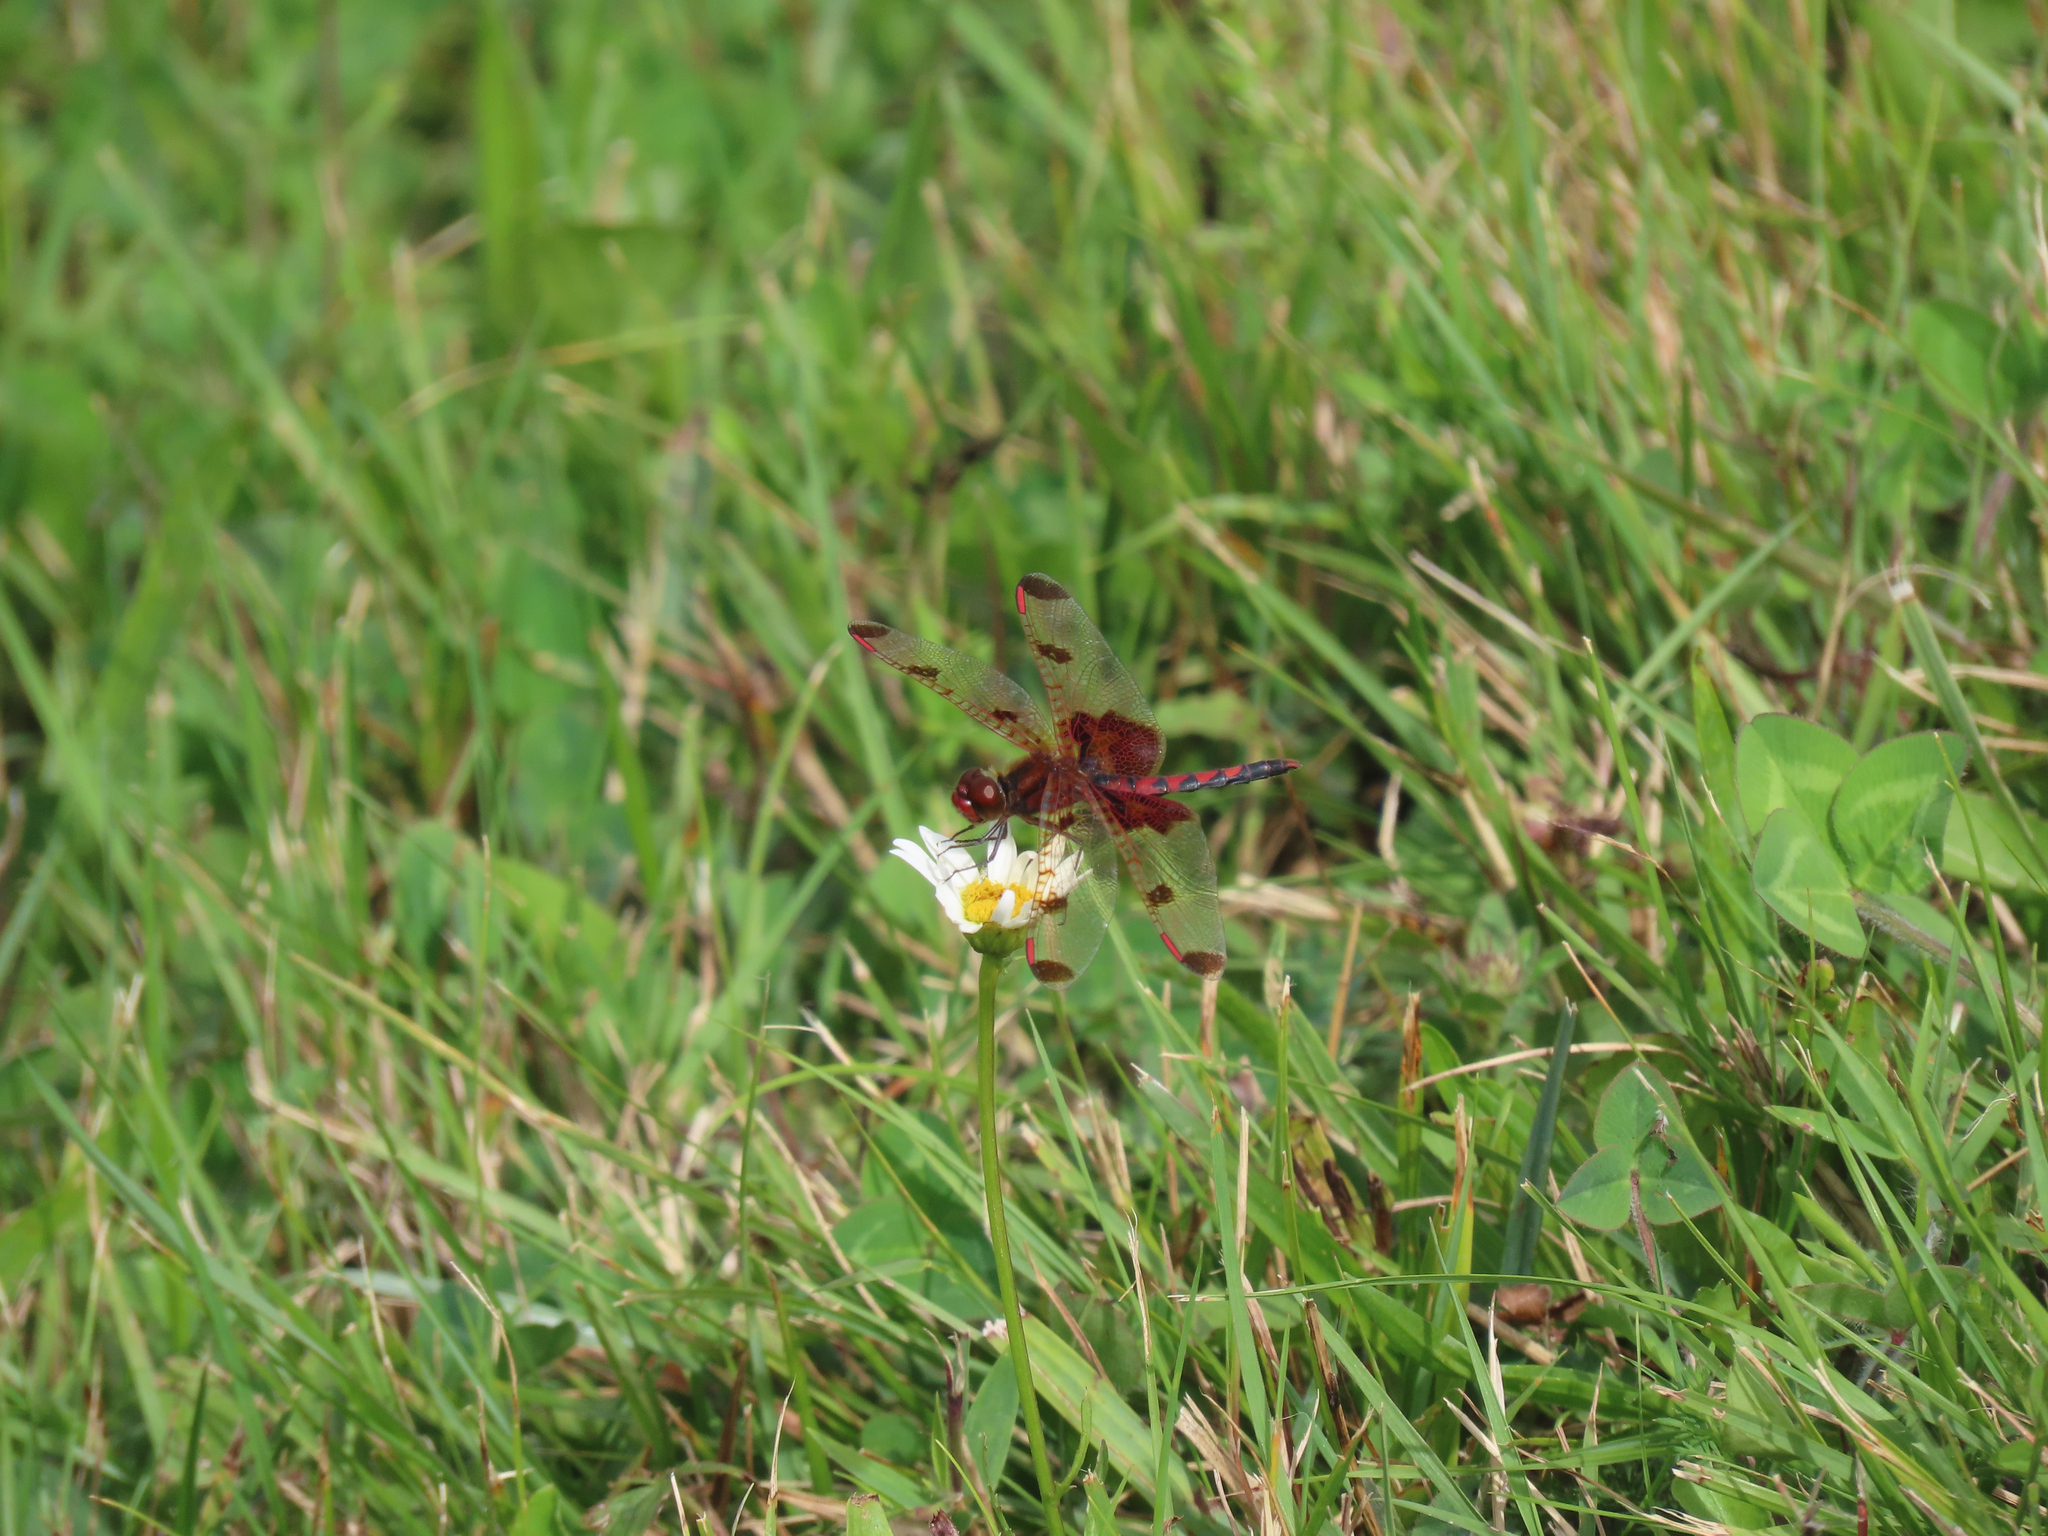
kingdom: Animalia
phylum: Arthropoda
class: Insecta
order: Odonata
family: Libellulidae
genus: Celithemis
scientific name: Celithemis elisa
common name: Calico pennant
